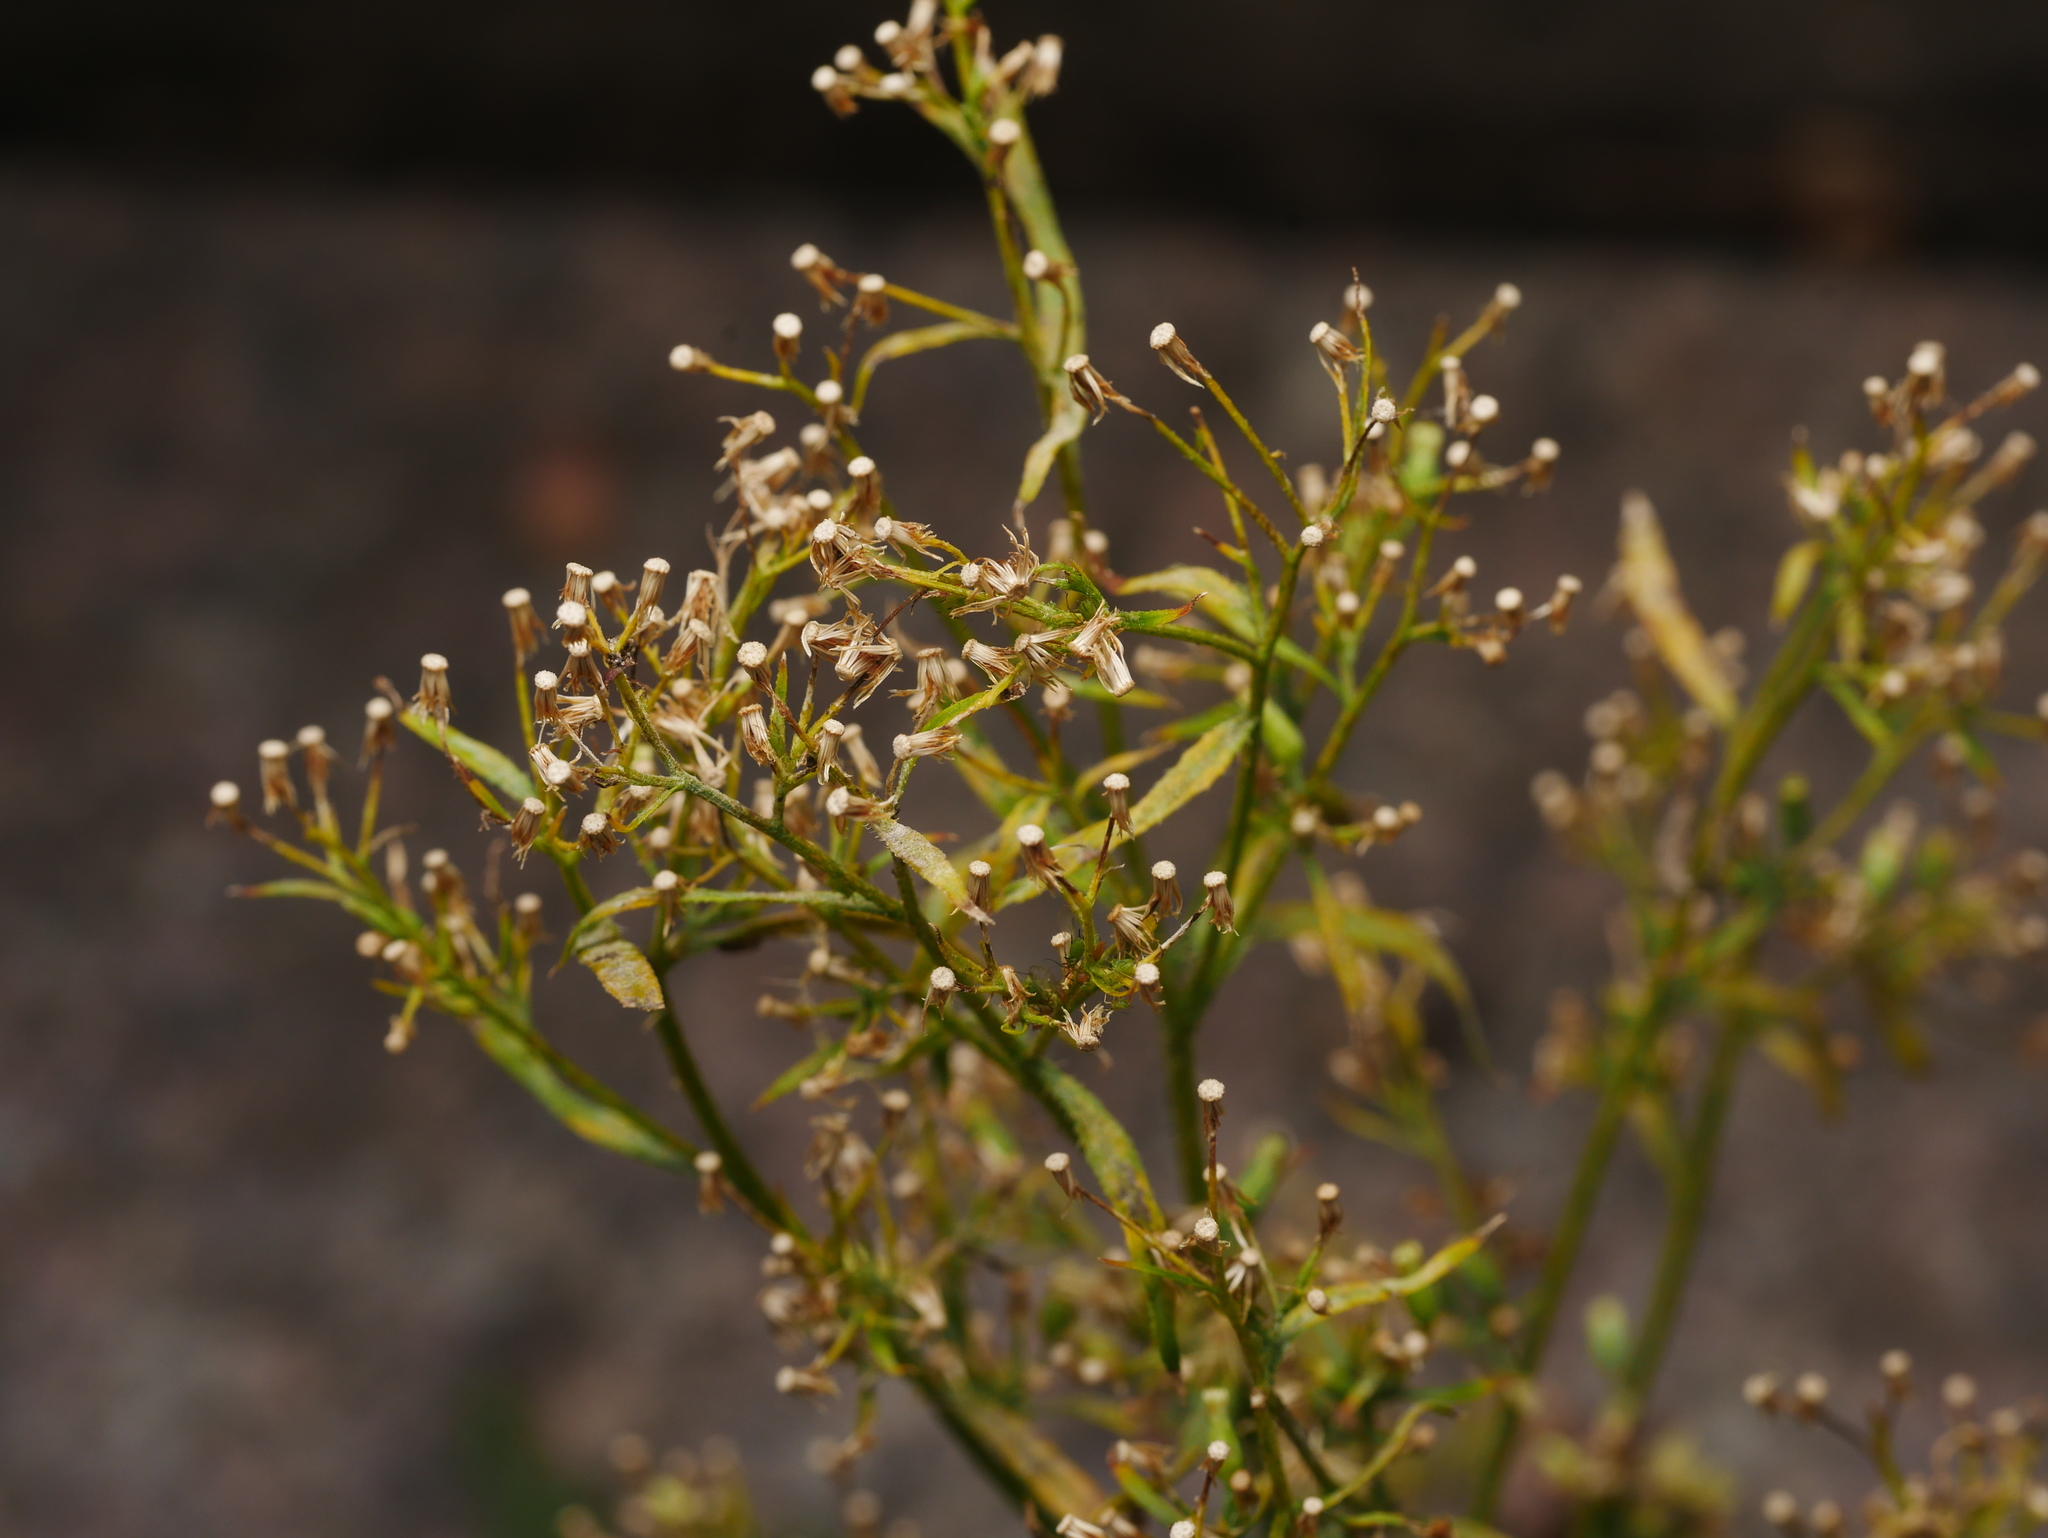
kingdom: Plantae
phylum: Tracheophyta
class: Magnoliopsida
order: Asterales
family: Asteraceae
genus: Erigeron
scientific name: Erigeron canadensis
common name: Canadian fleabane
